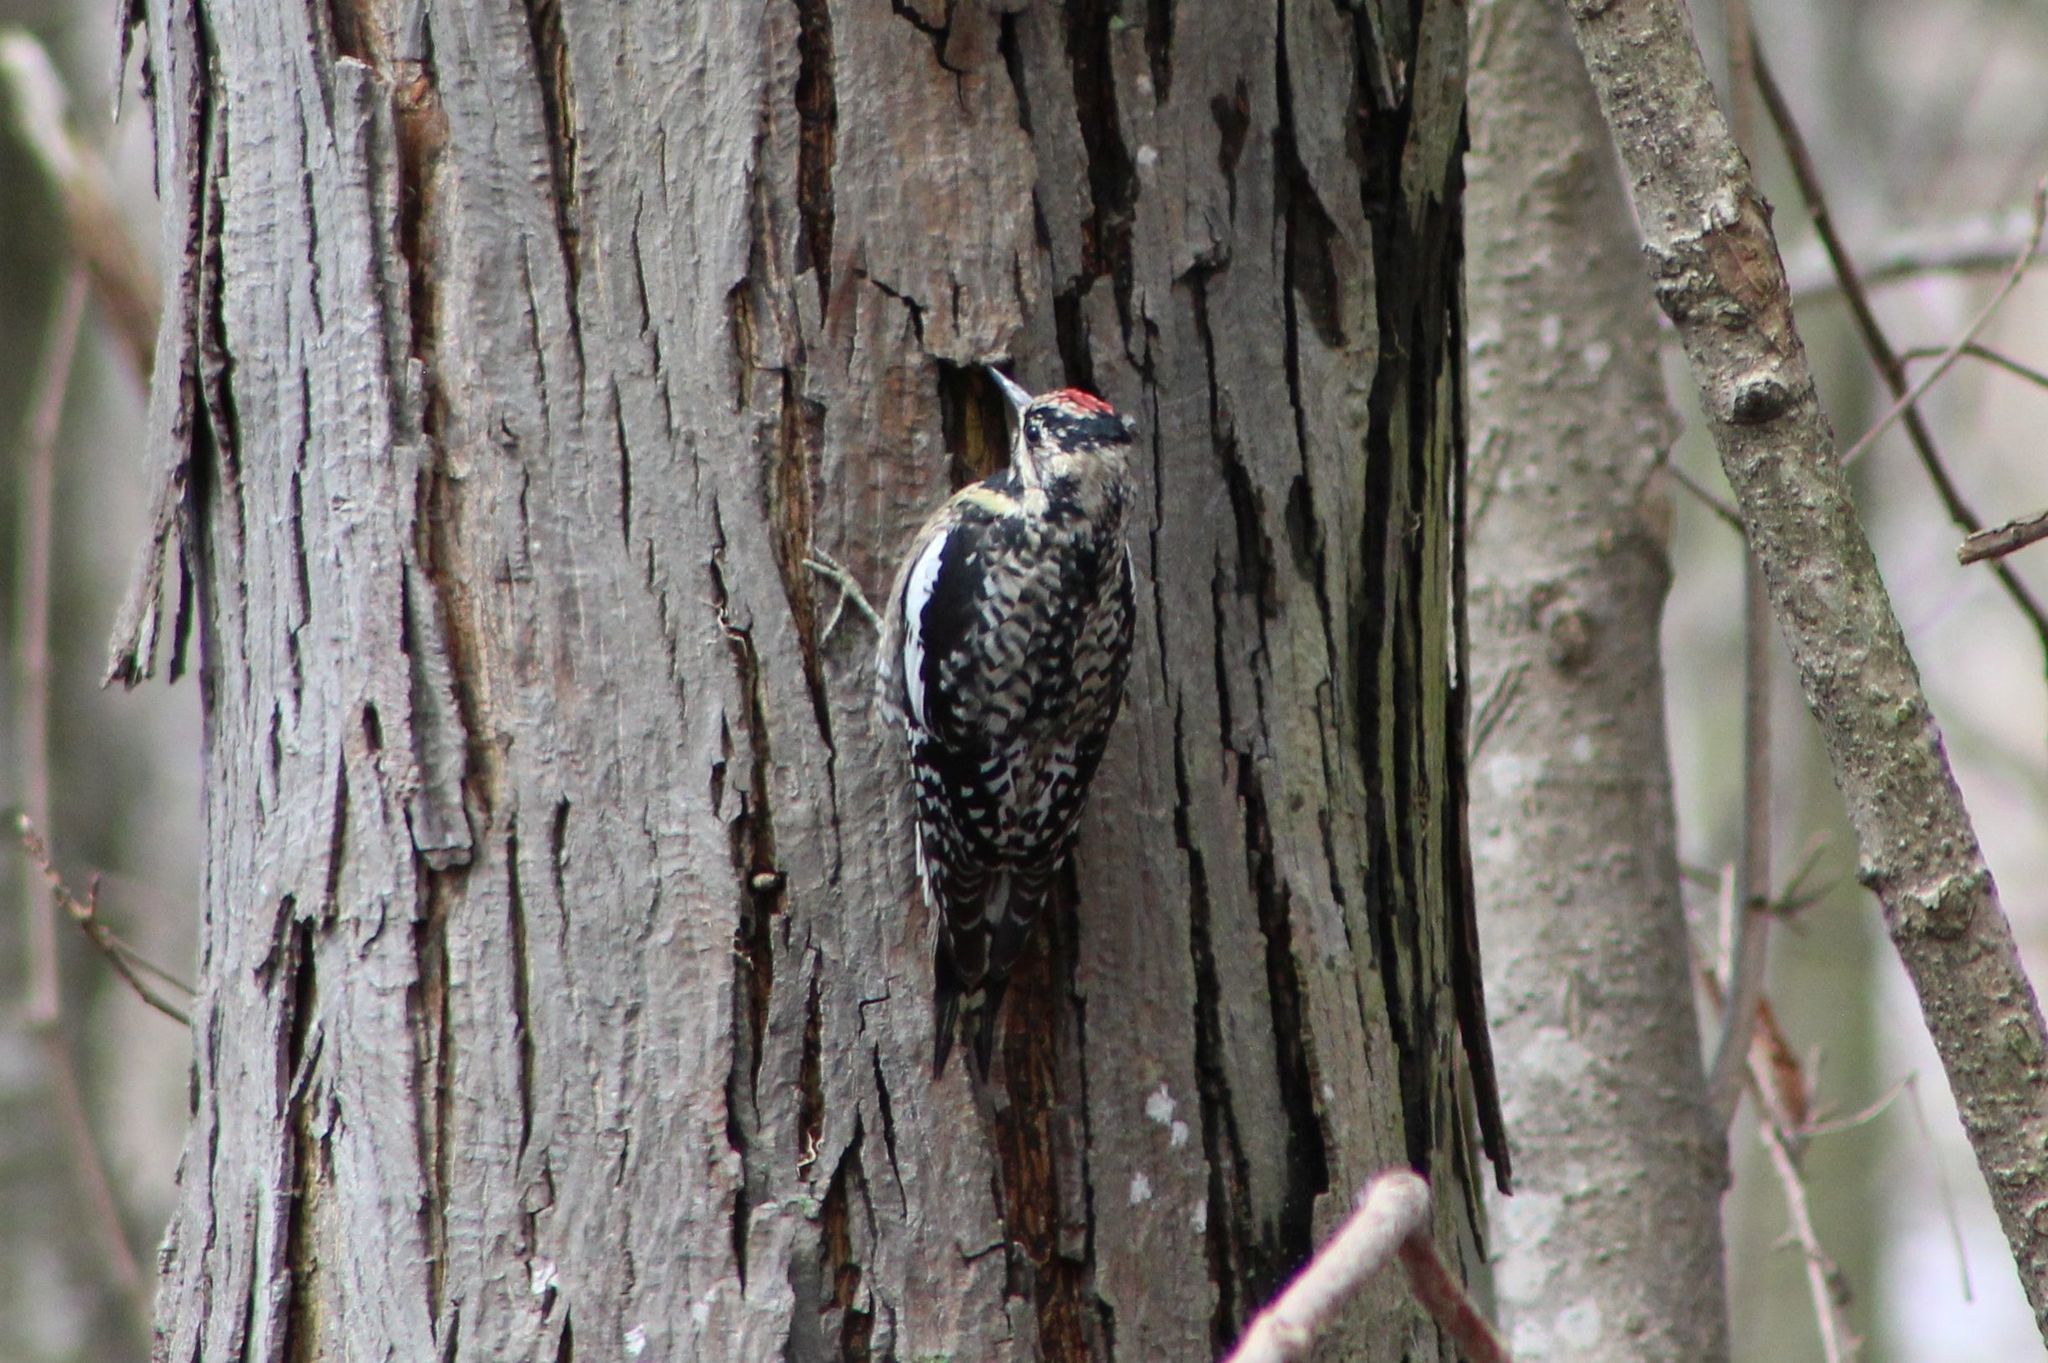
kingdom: Animalia
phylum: Chordata
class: Aves
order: Piciformes
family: Picidae
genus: Sphyrapicus
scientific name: Sphyrapicus varius
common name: Yellow-bellied sapsucker
